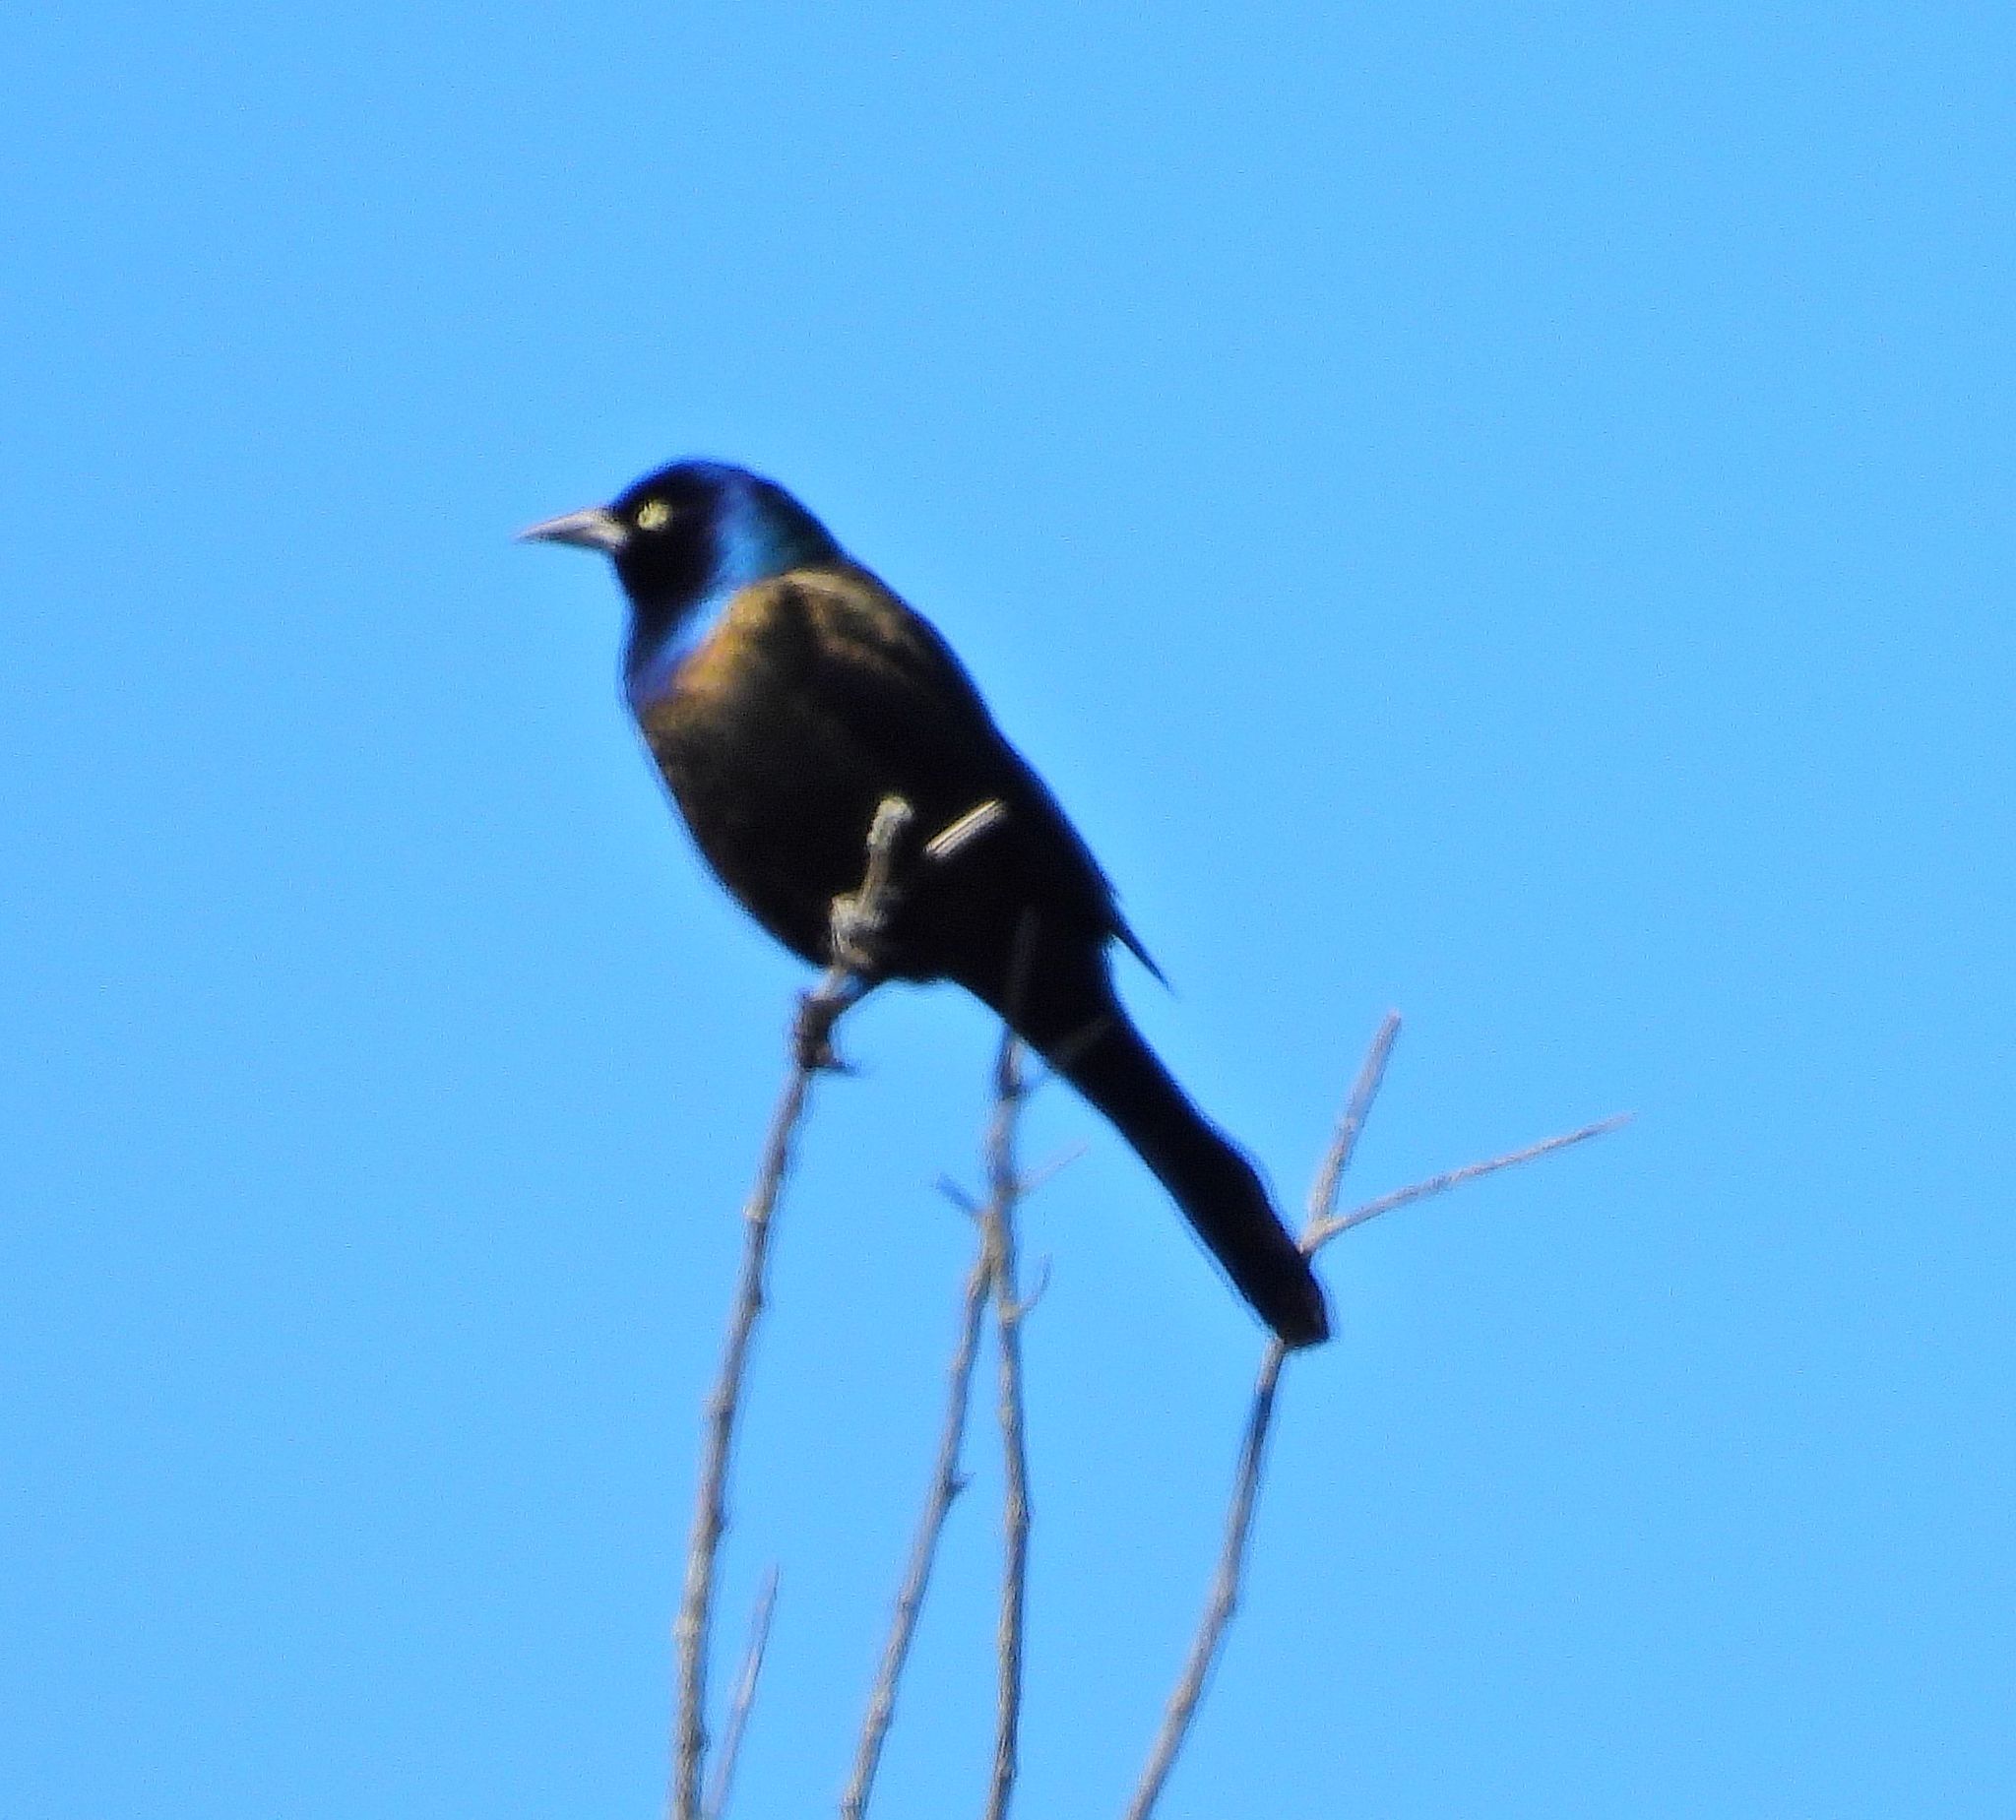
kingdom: Animalia
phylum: Chordata
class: Aves
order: Passeriformes
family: Icteridae
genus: Quiscalus
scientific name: Quiscalus quiscula
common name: Common grackle
